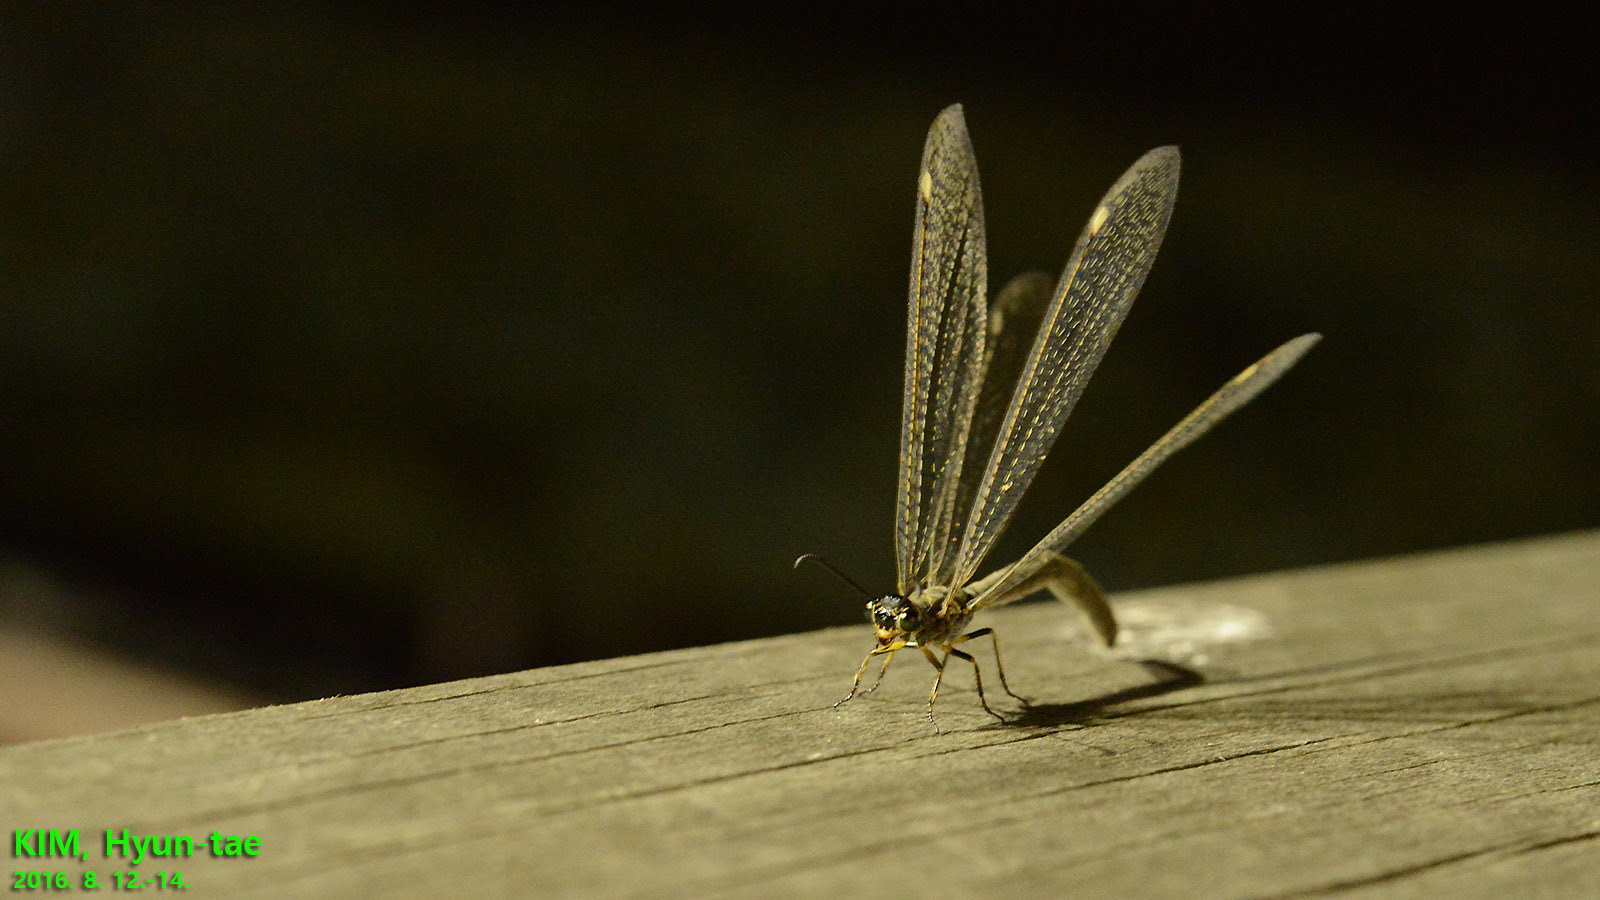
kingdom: Animalia
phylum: Arthropoda
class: Insecta
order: Neuroptera
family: Myrmeleontidae
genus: Hagenomyia
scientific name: Hagenomyia micans
